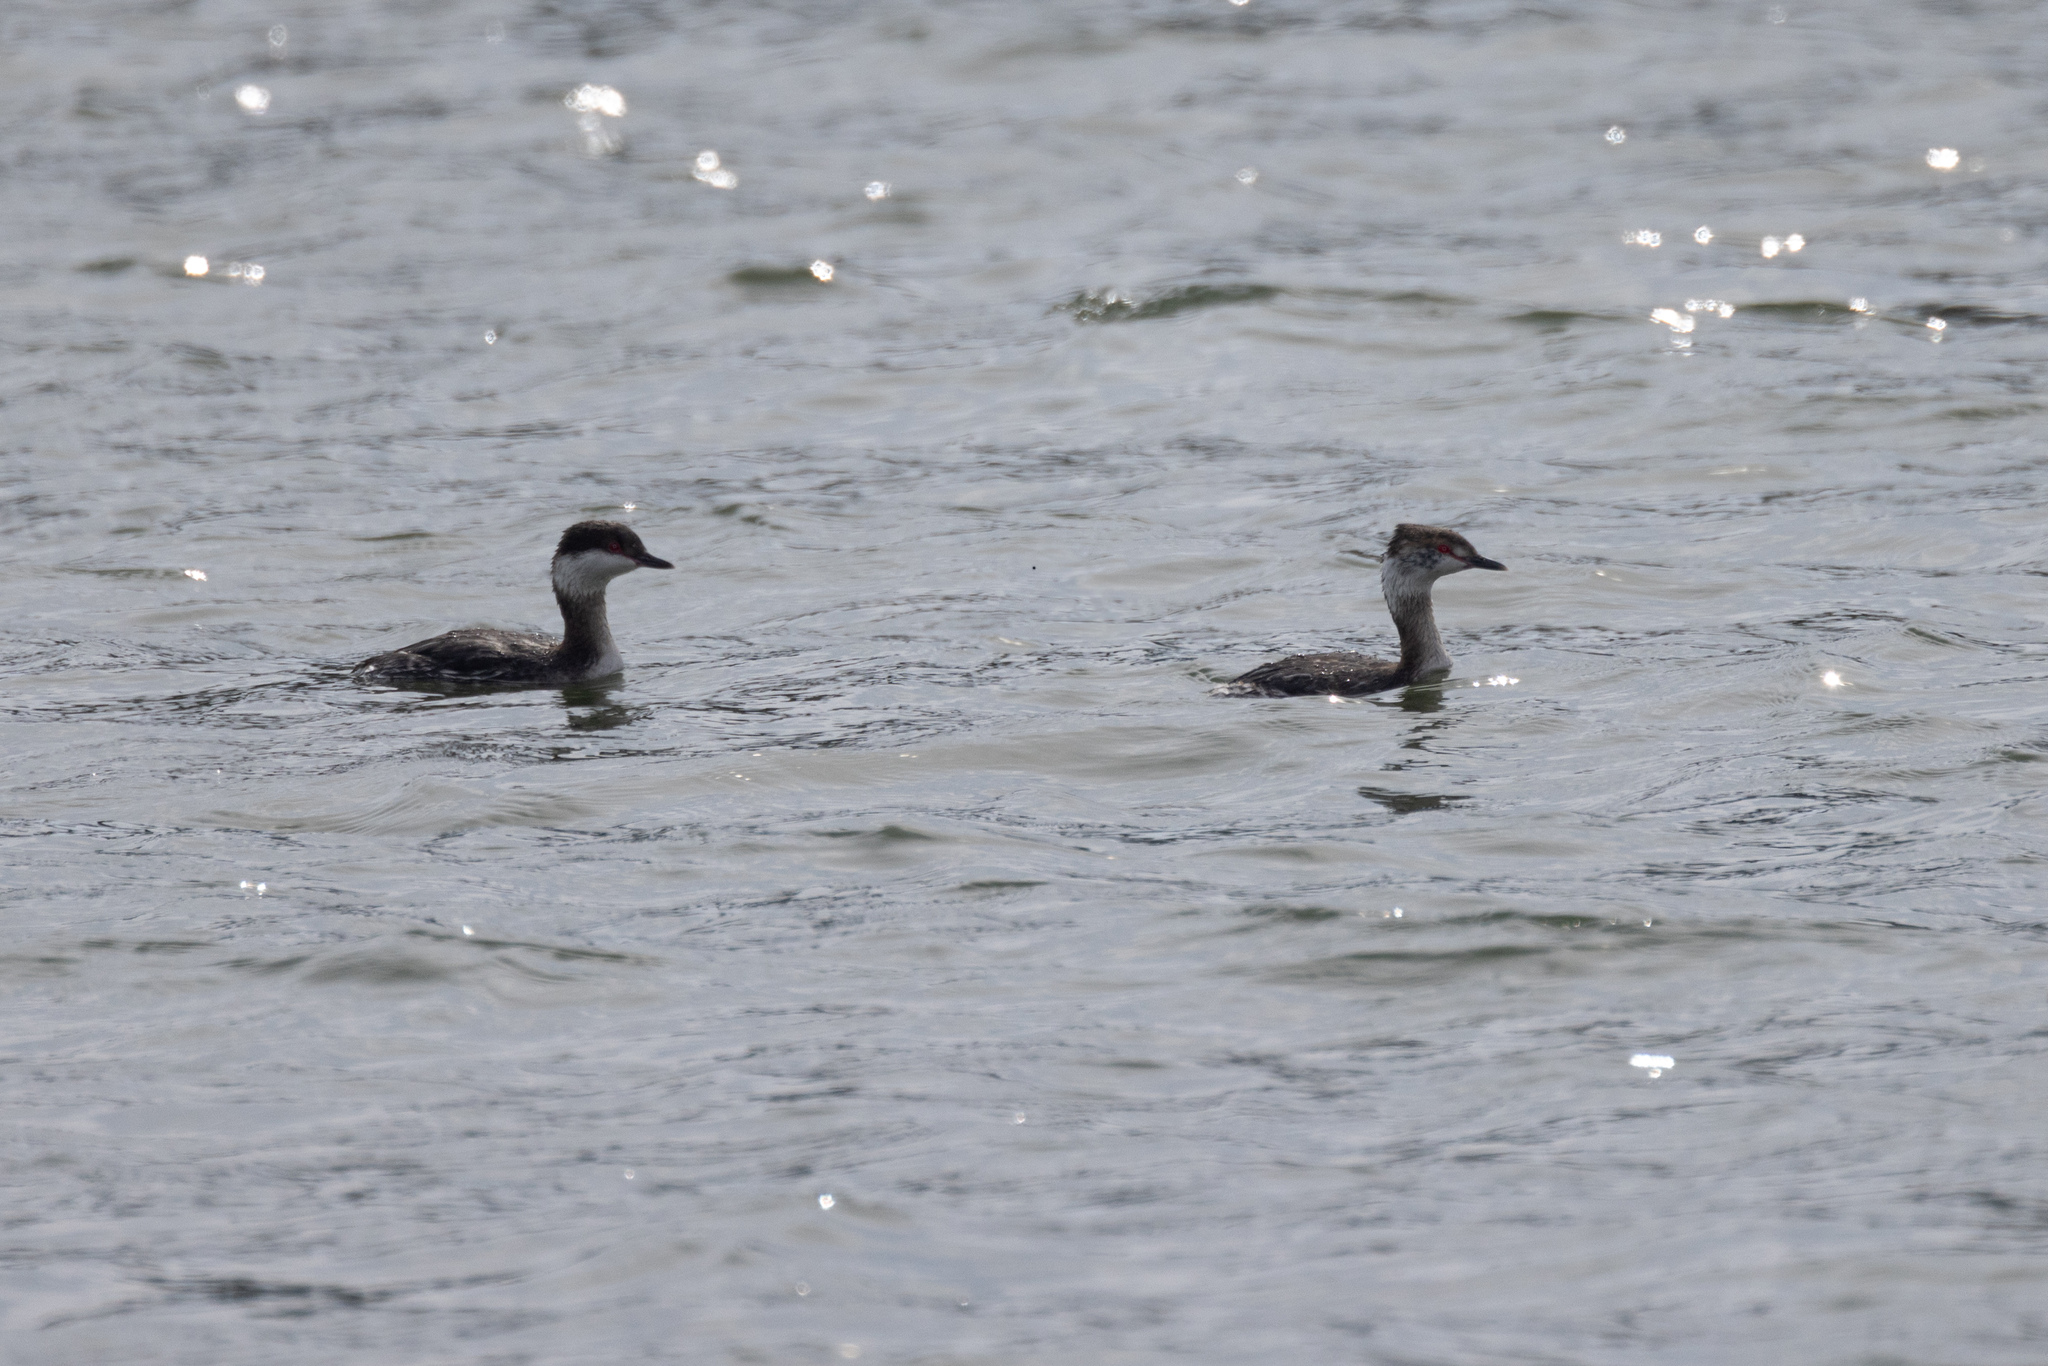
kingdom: Animalia
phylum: Chordata
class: Aves
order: Podicipediformes
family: Podicipedidae
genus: Podiceps
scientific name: Podiceps auritus
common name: Horned grebe
